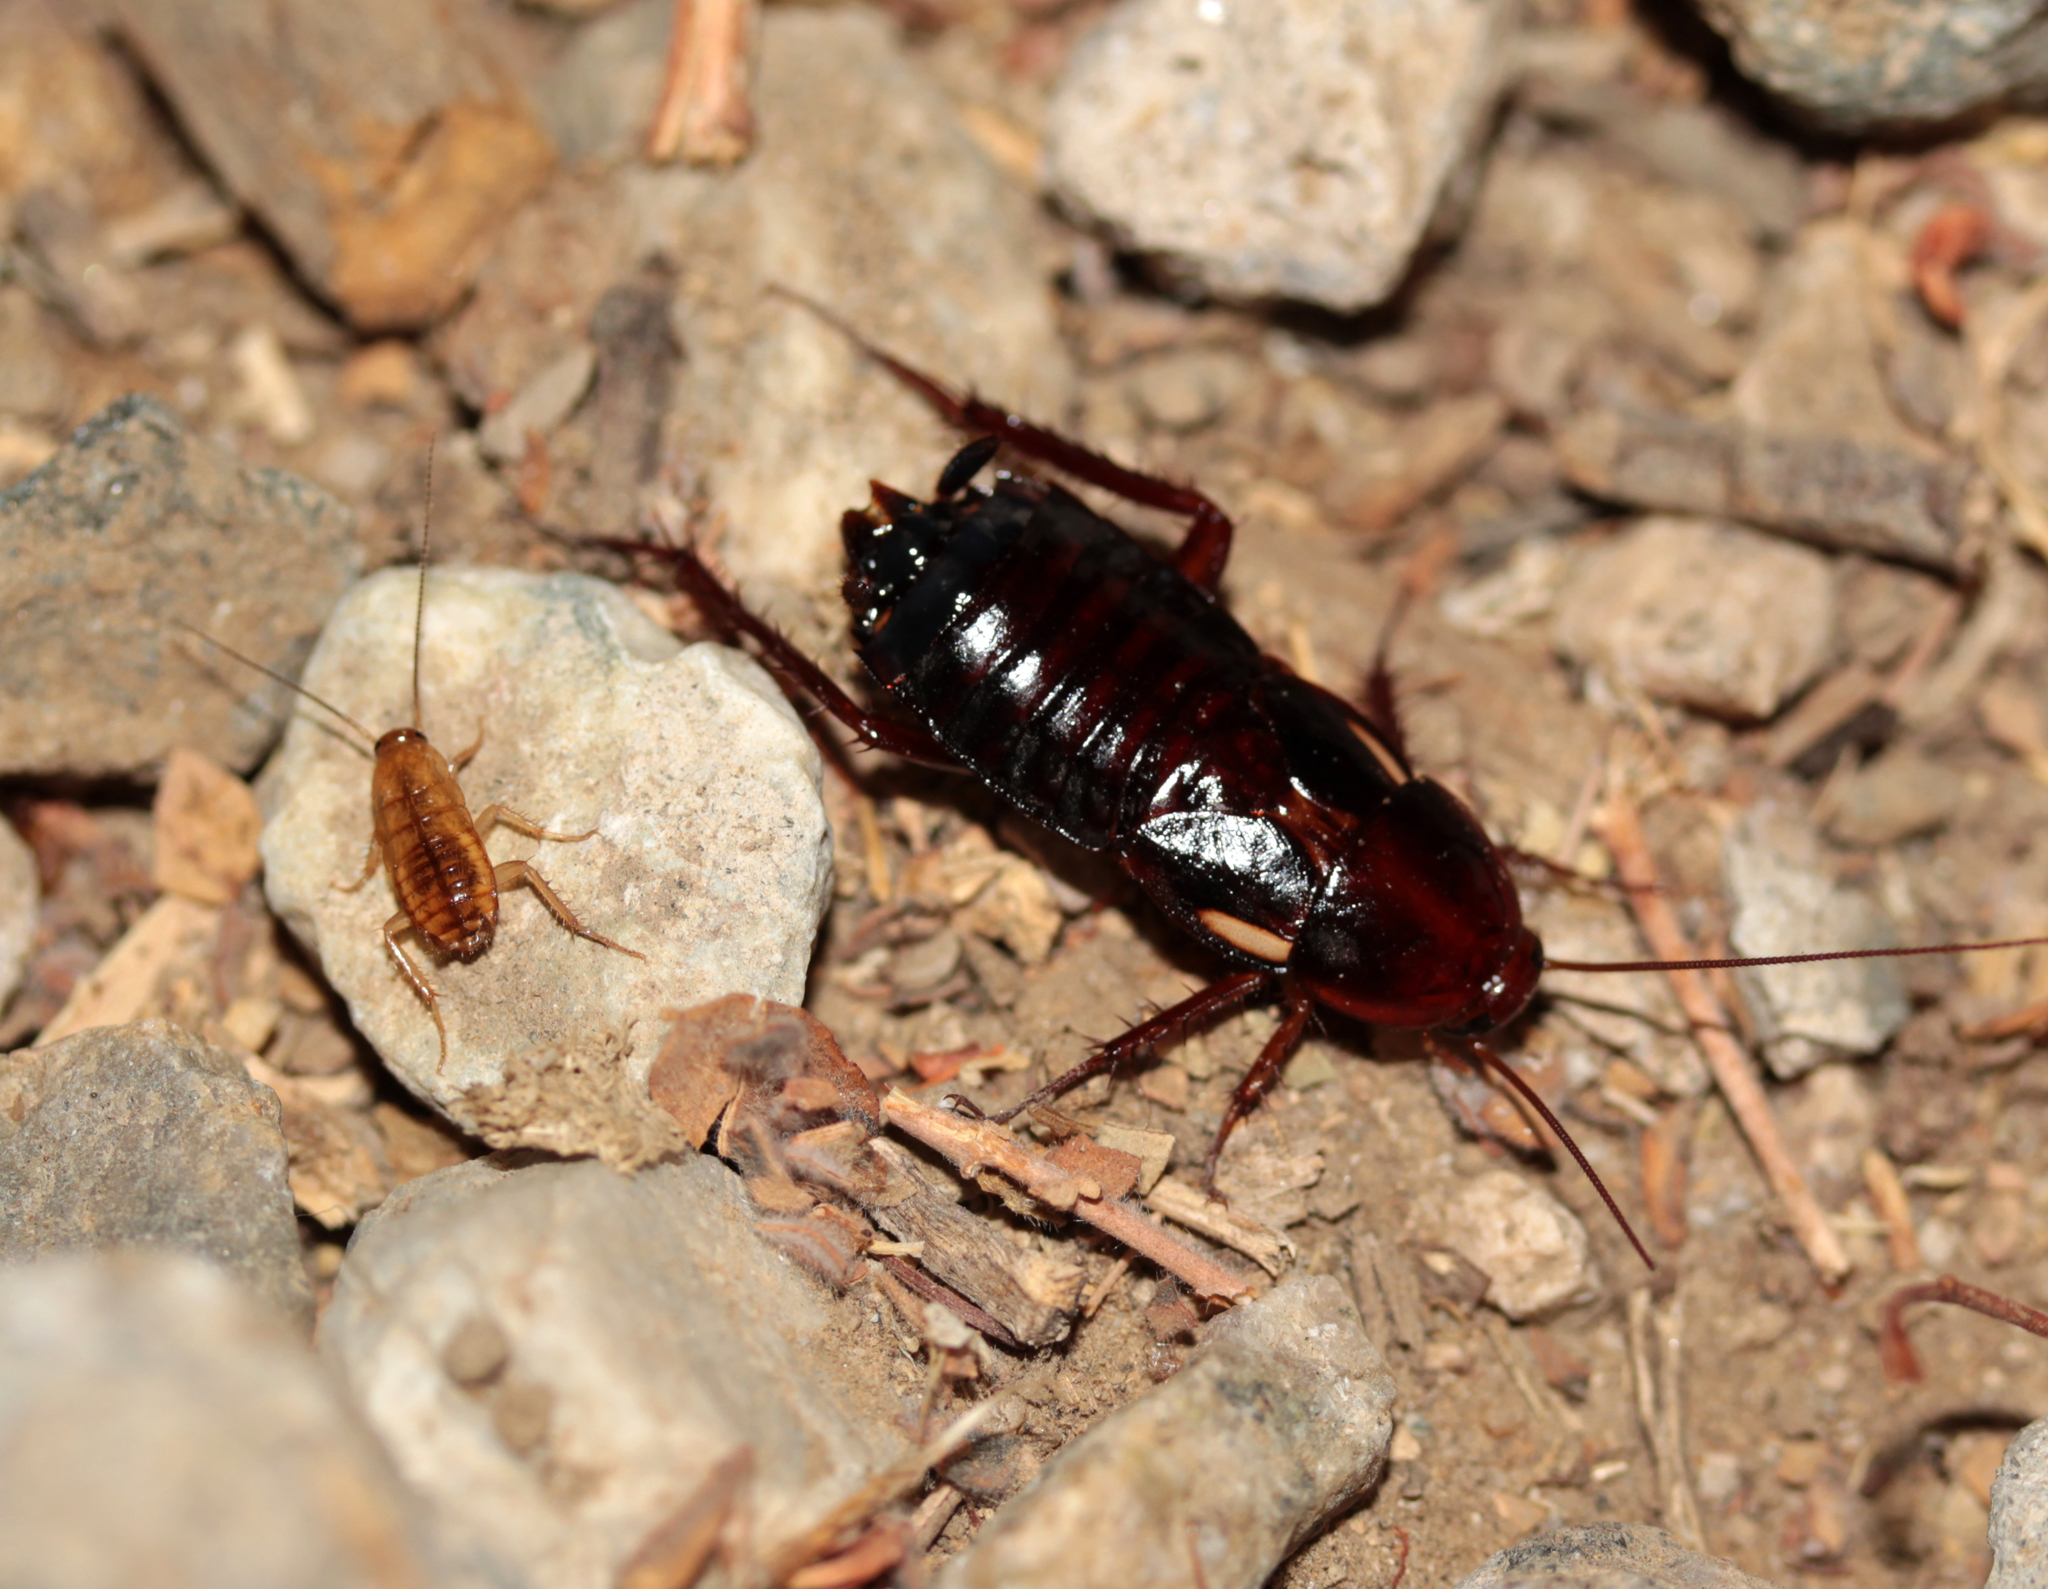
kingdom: Animalia
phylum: Arthropoda
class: Insecta
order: Blattodea
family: Blattidae
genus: Periplaneta
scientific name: Periplaneta lateralis
